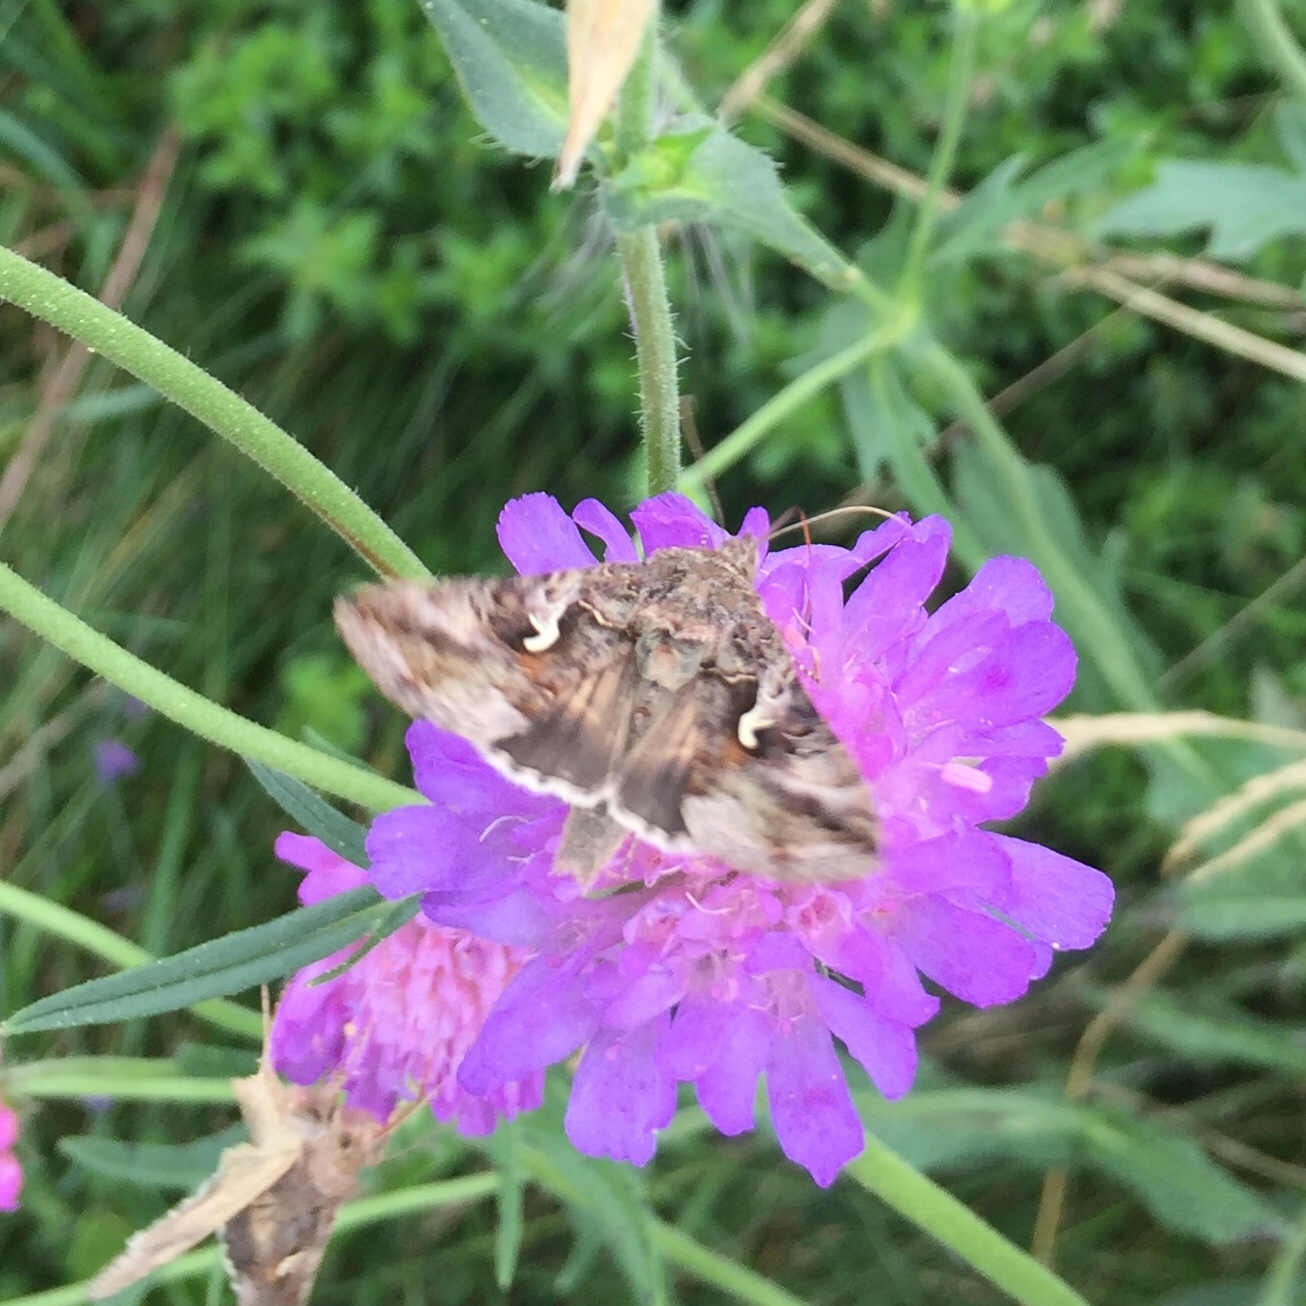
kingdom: Animalia
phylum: Arthropoda
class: Insecta
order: Lepidoptera
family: Noctuidae
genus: Autographa
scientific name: Autographa gamma
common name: Silver y
